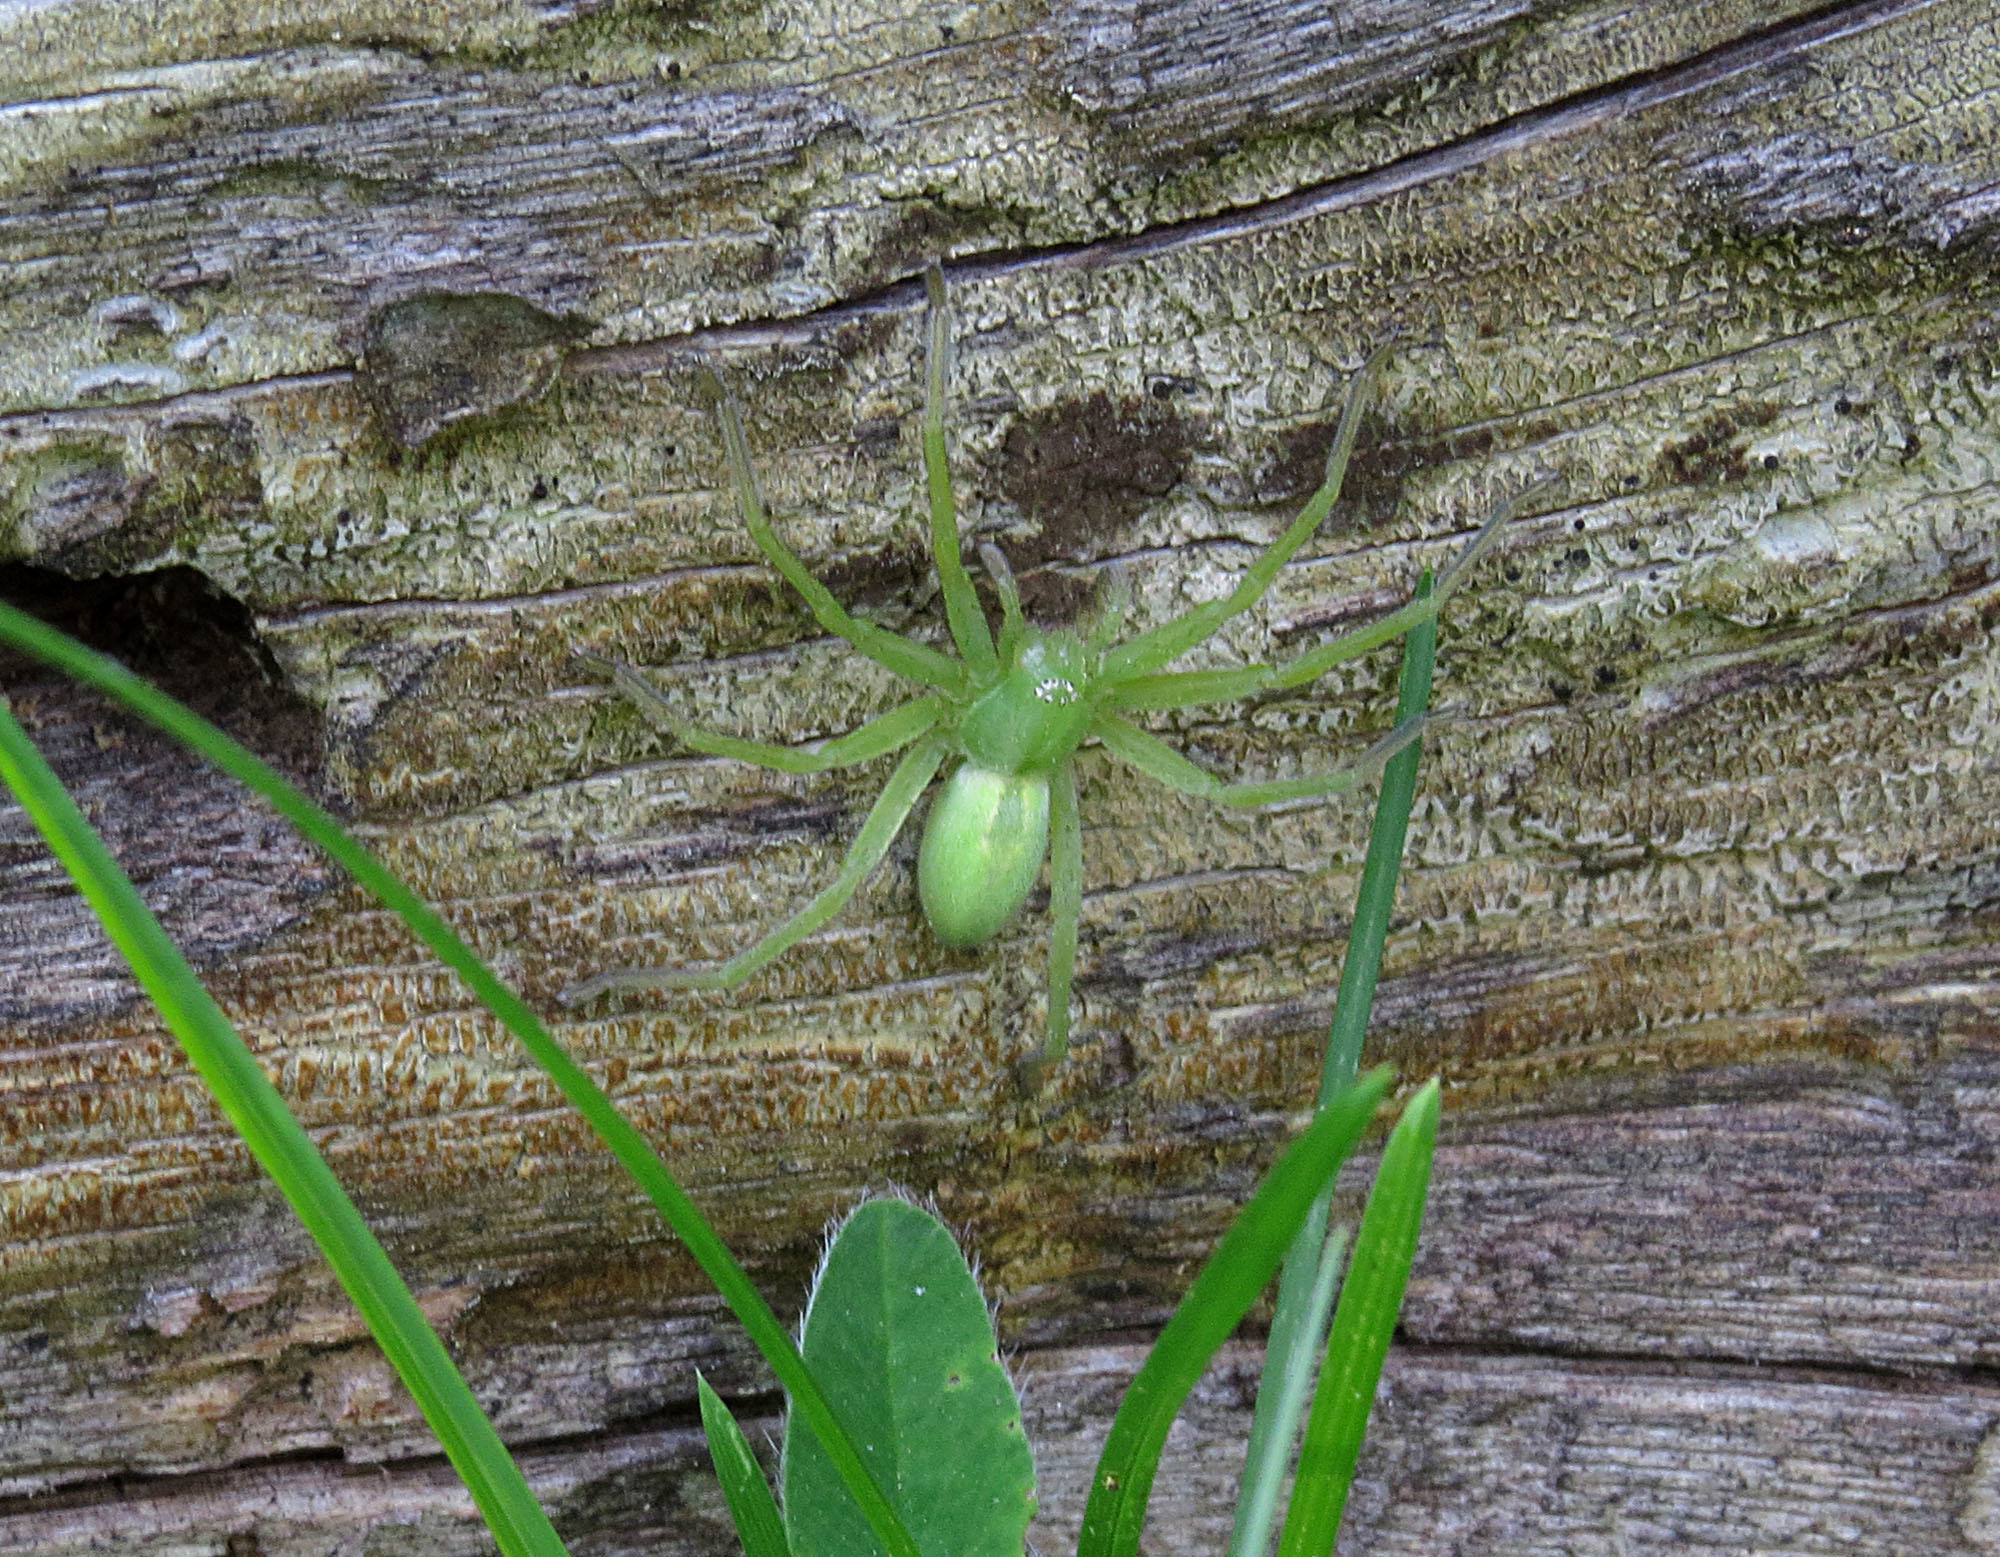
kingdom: Animalia
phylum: Arthropoda
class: Arachnida
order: Araneae
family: Sparassidae
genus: Micrommata
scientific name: Micrommata virescens
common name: Green spider
